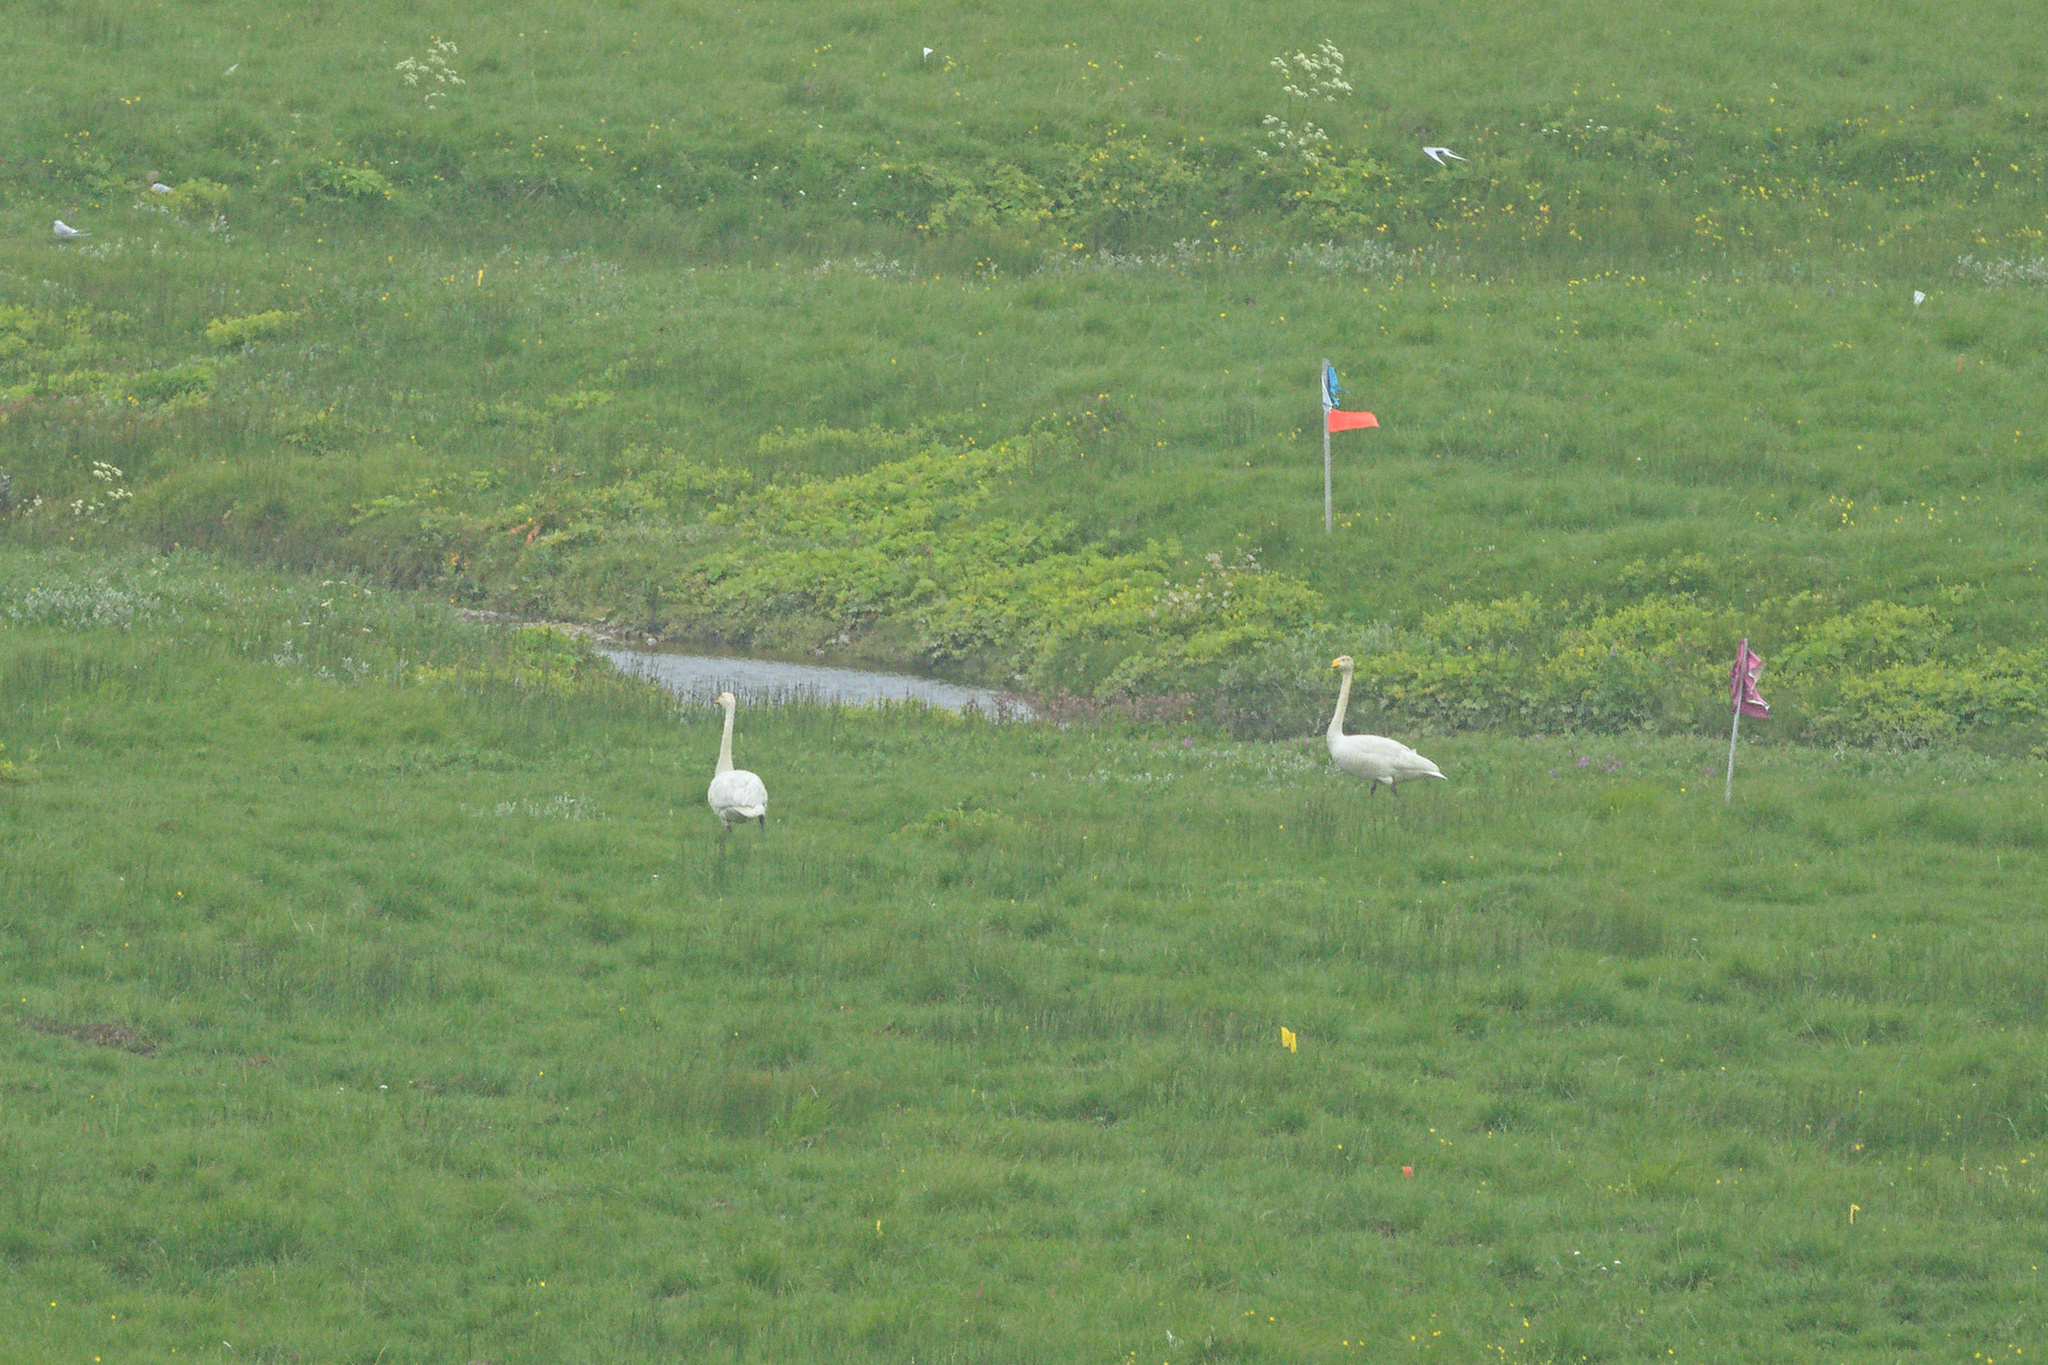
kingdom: Animalia
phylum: Chordata
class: Aves
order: Anseriformes
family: Anatidae
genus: Cygnus
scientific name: Cygnus cygnus
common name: Whooper swan
